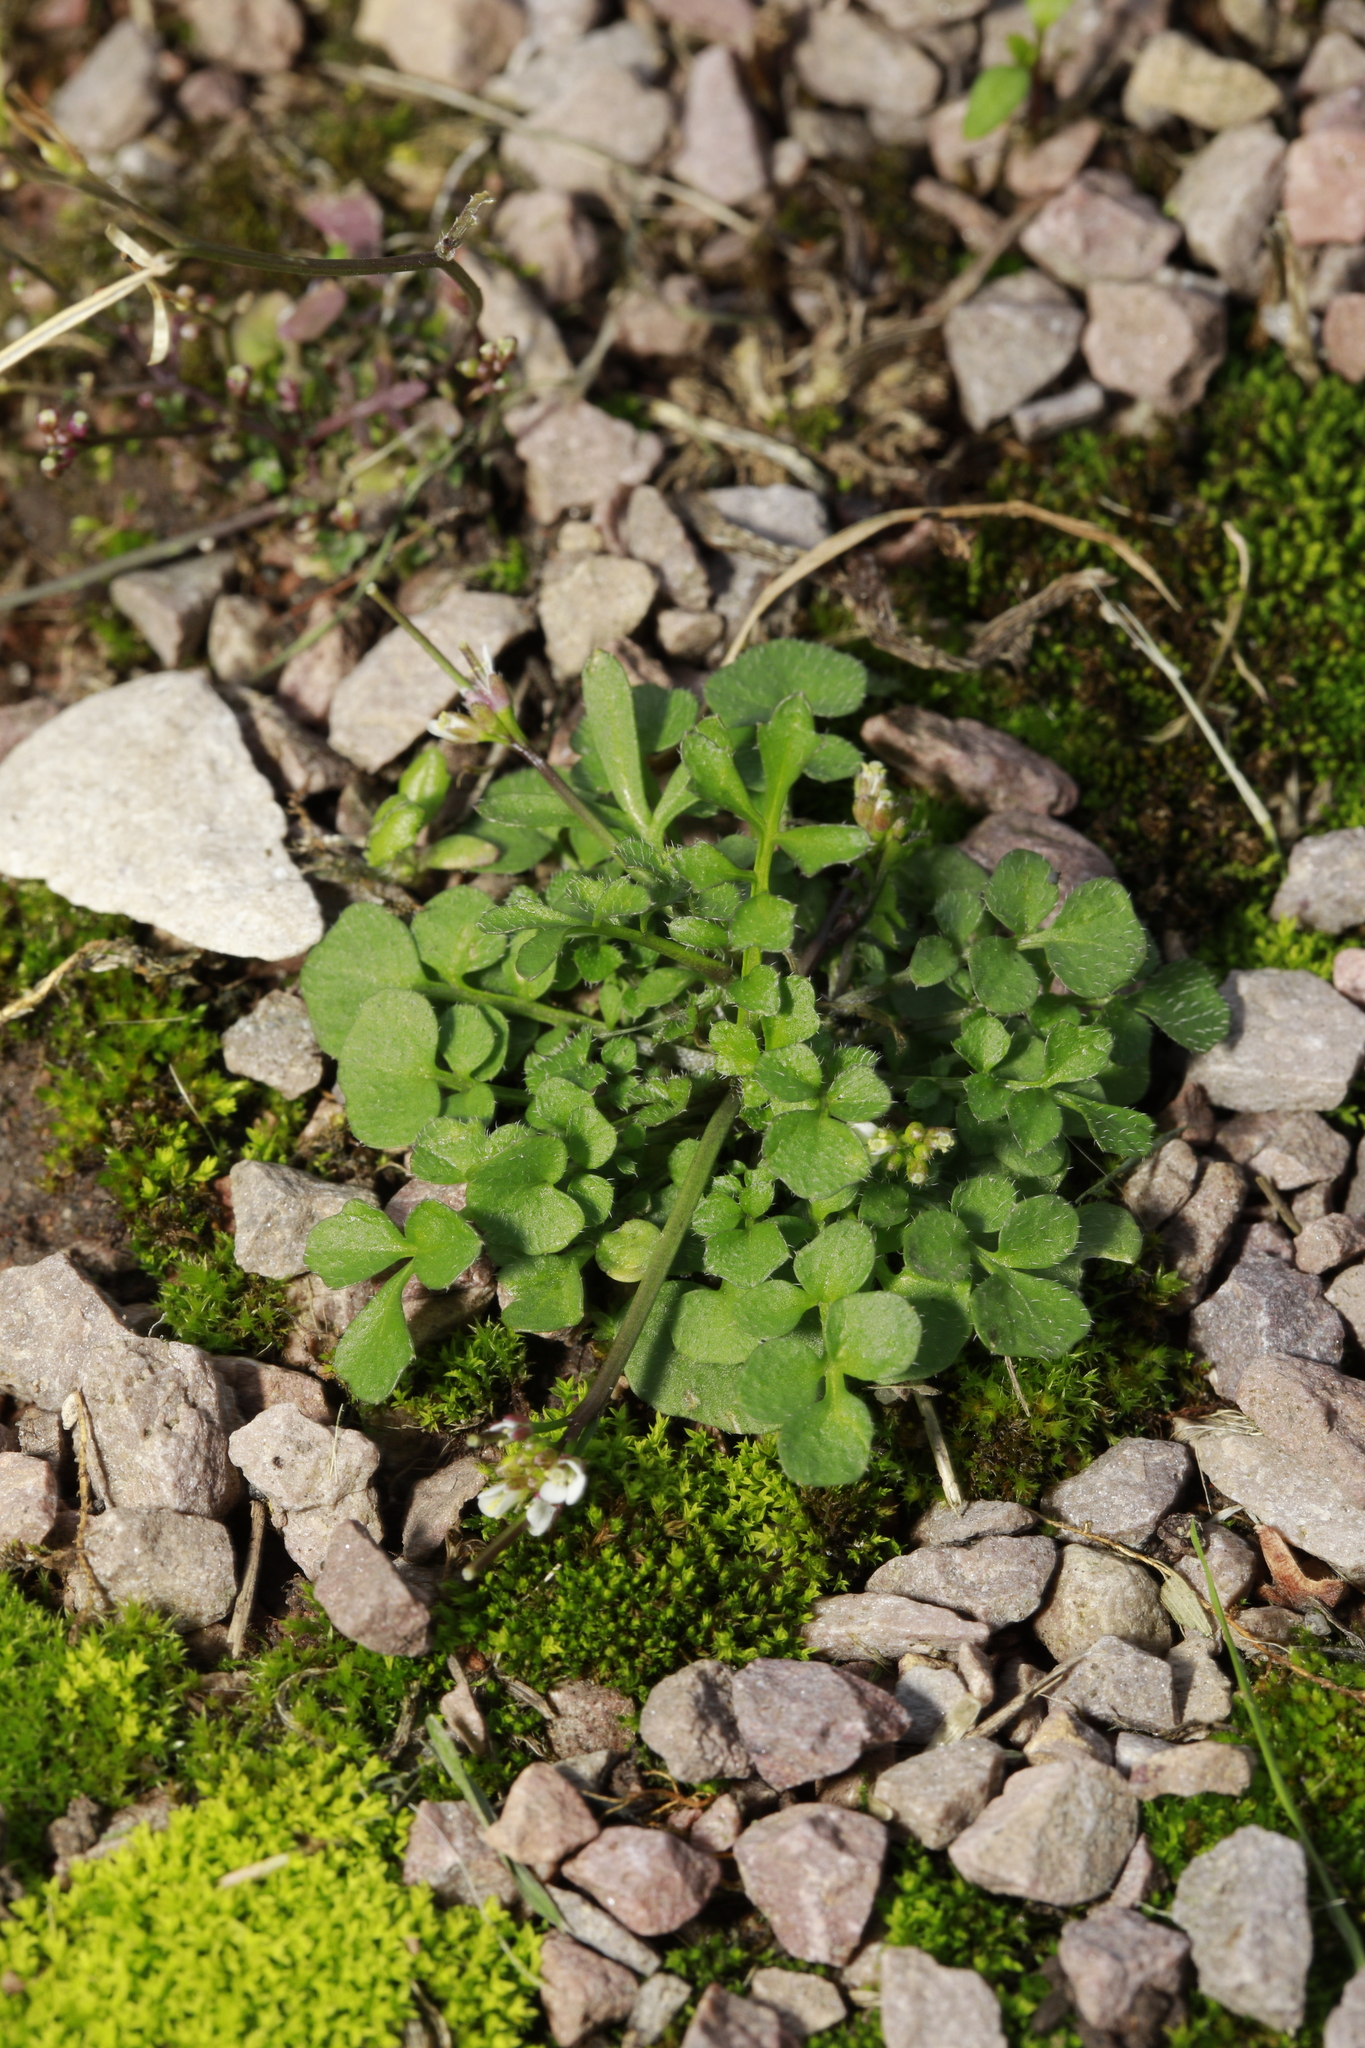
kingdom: Plantae
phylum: Tracheophyta
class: Magnoliopsida
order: Brassicales
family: Brassicaceae
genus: Cardamine
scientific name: Cardamine hirsuta
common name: Hairy bittercress
